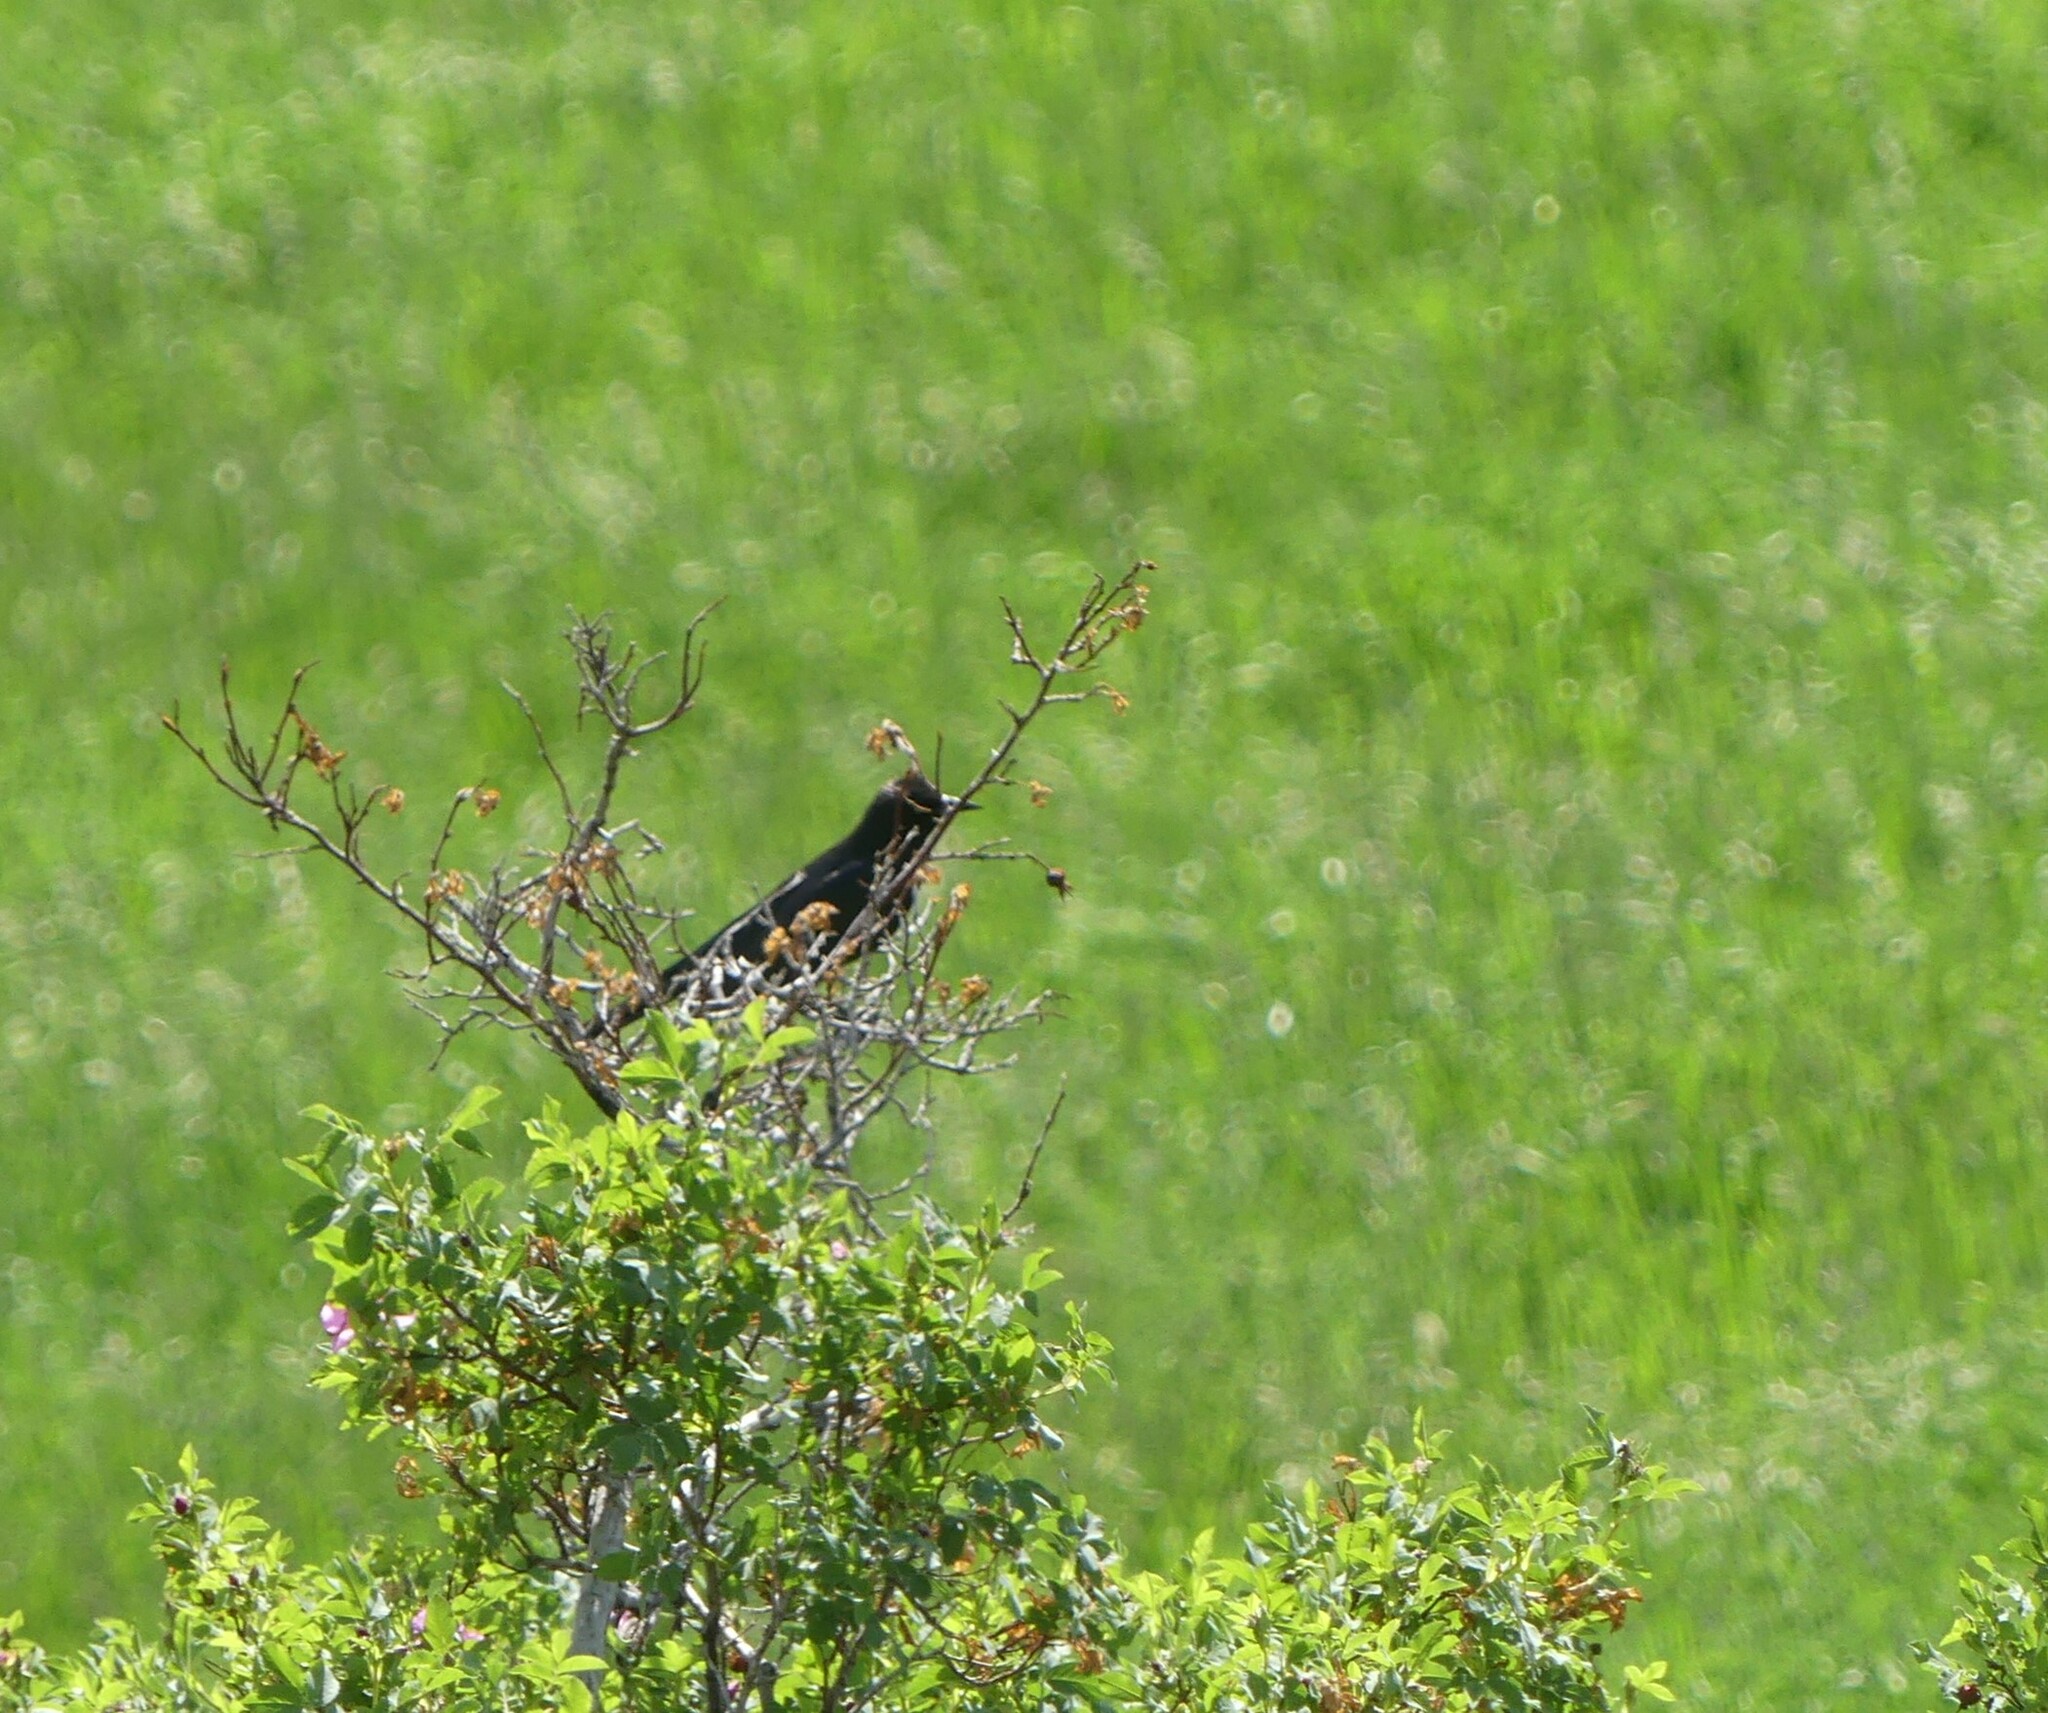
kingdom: Animalia
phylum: Chordata
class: Aves
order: Passeriformes
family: Tyrannidae
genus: Tyrannus
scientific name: Tyrannus tyrannus
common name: Eastern kingbird
